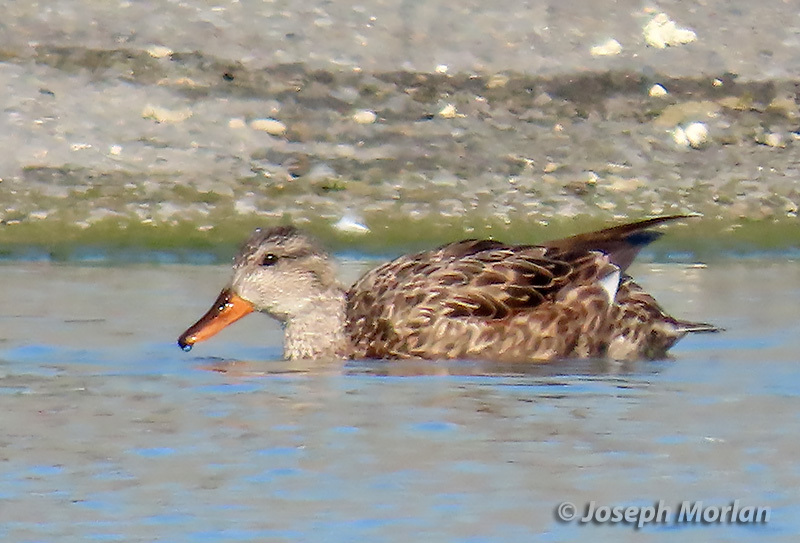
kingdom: Animalia
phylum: Chordata
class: Aves
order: Anseriformes
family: Anatidae
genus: Mareca
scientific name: Mareca strepera
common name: Gadwall
